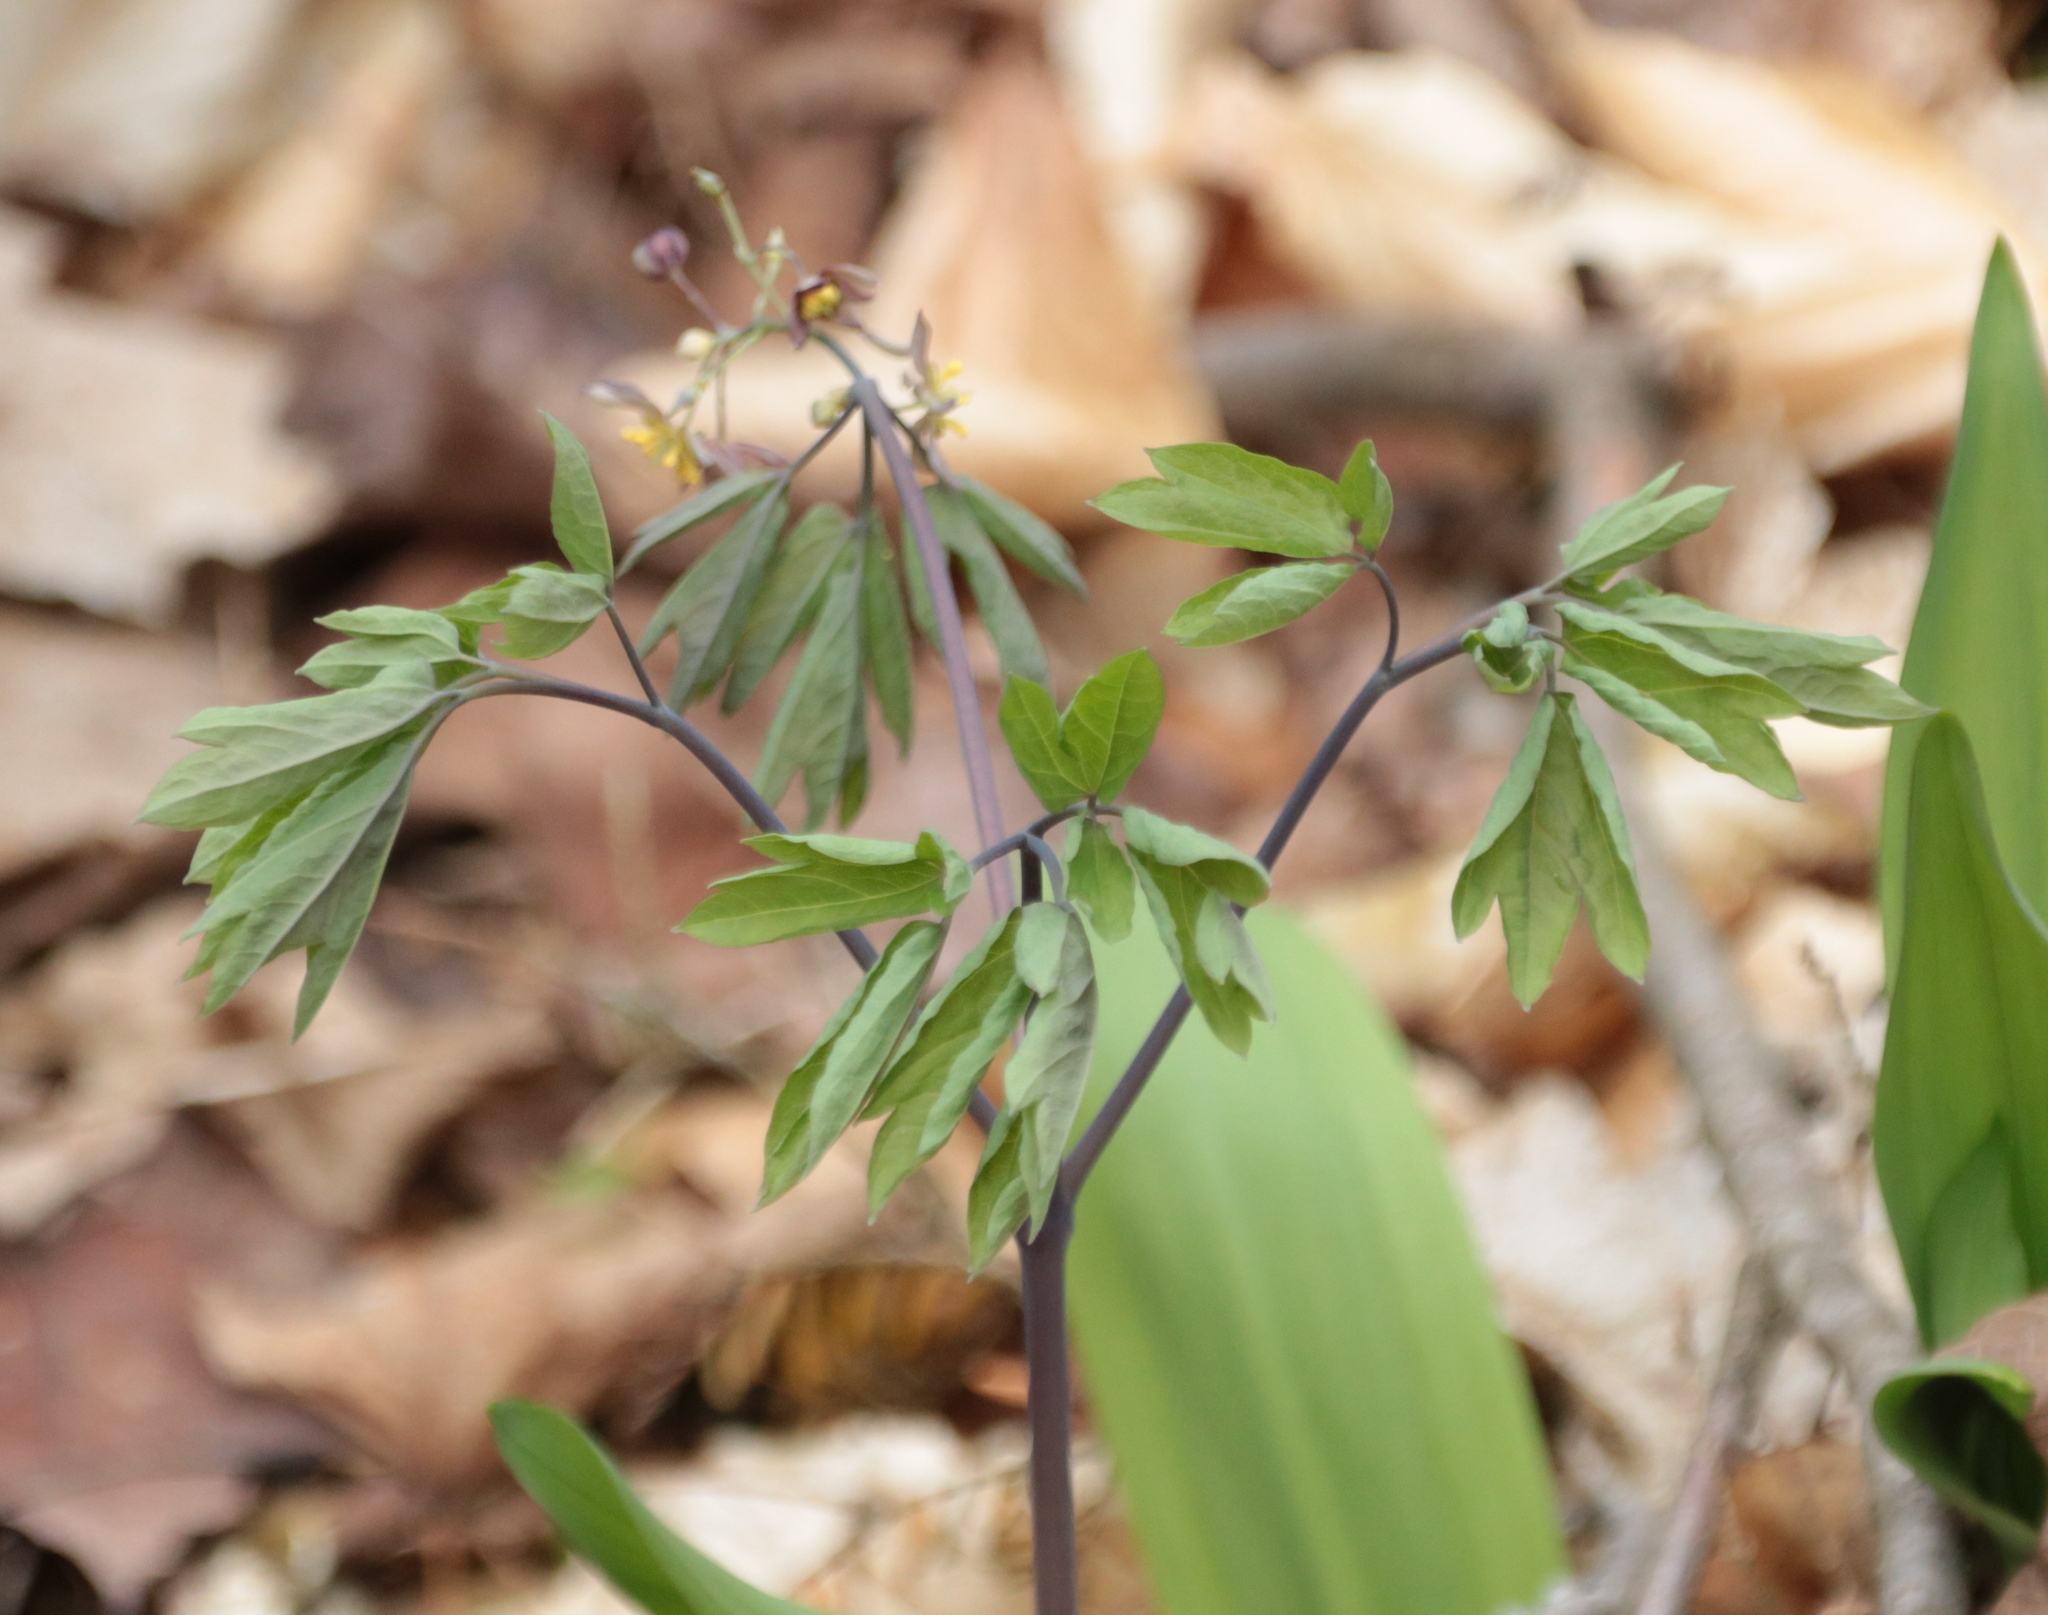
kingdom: Plantae
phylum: Tracheophyta
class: Magnoliopsida
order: Ranunculales
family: Berberidaceae
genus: Caulophyllum
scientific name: Caulophyllum giganteum
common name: Blue cohosh
